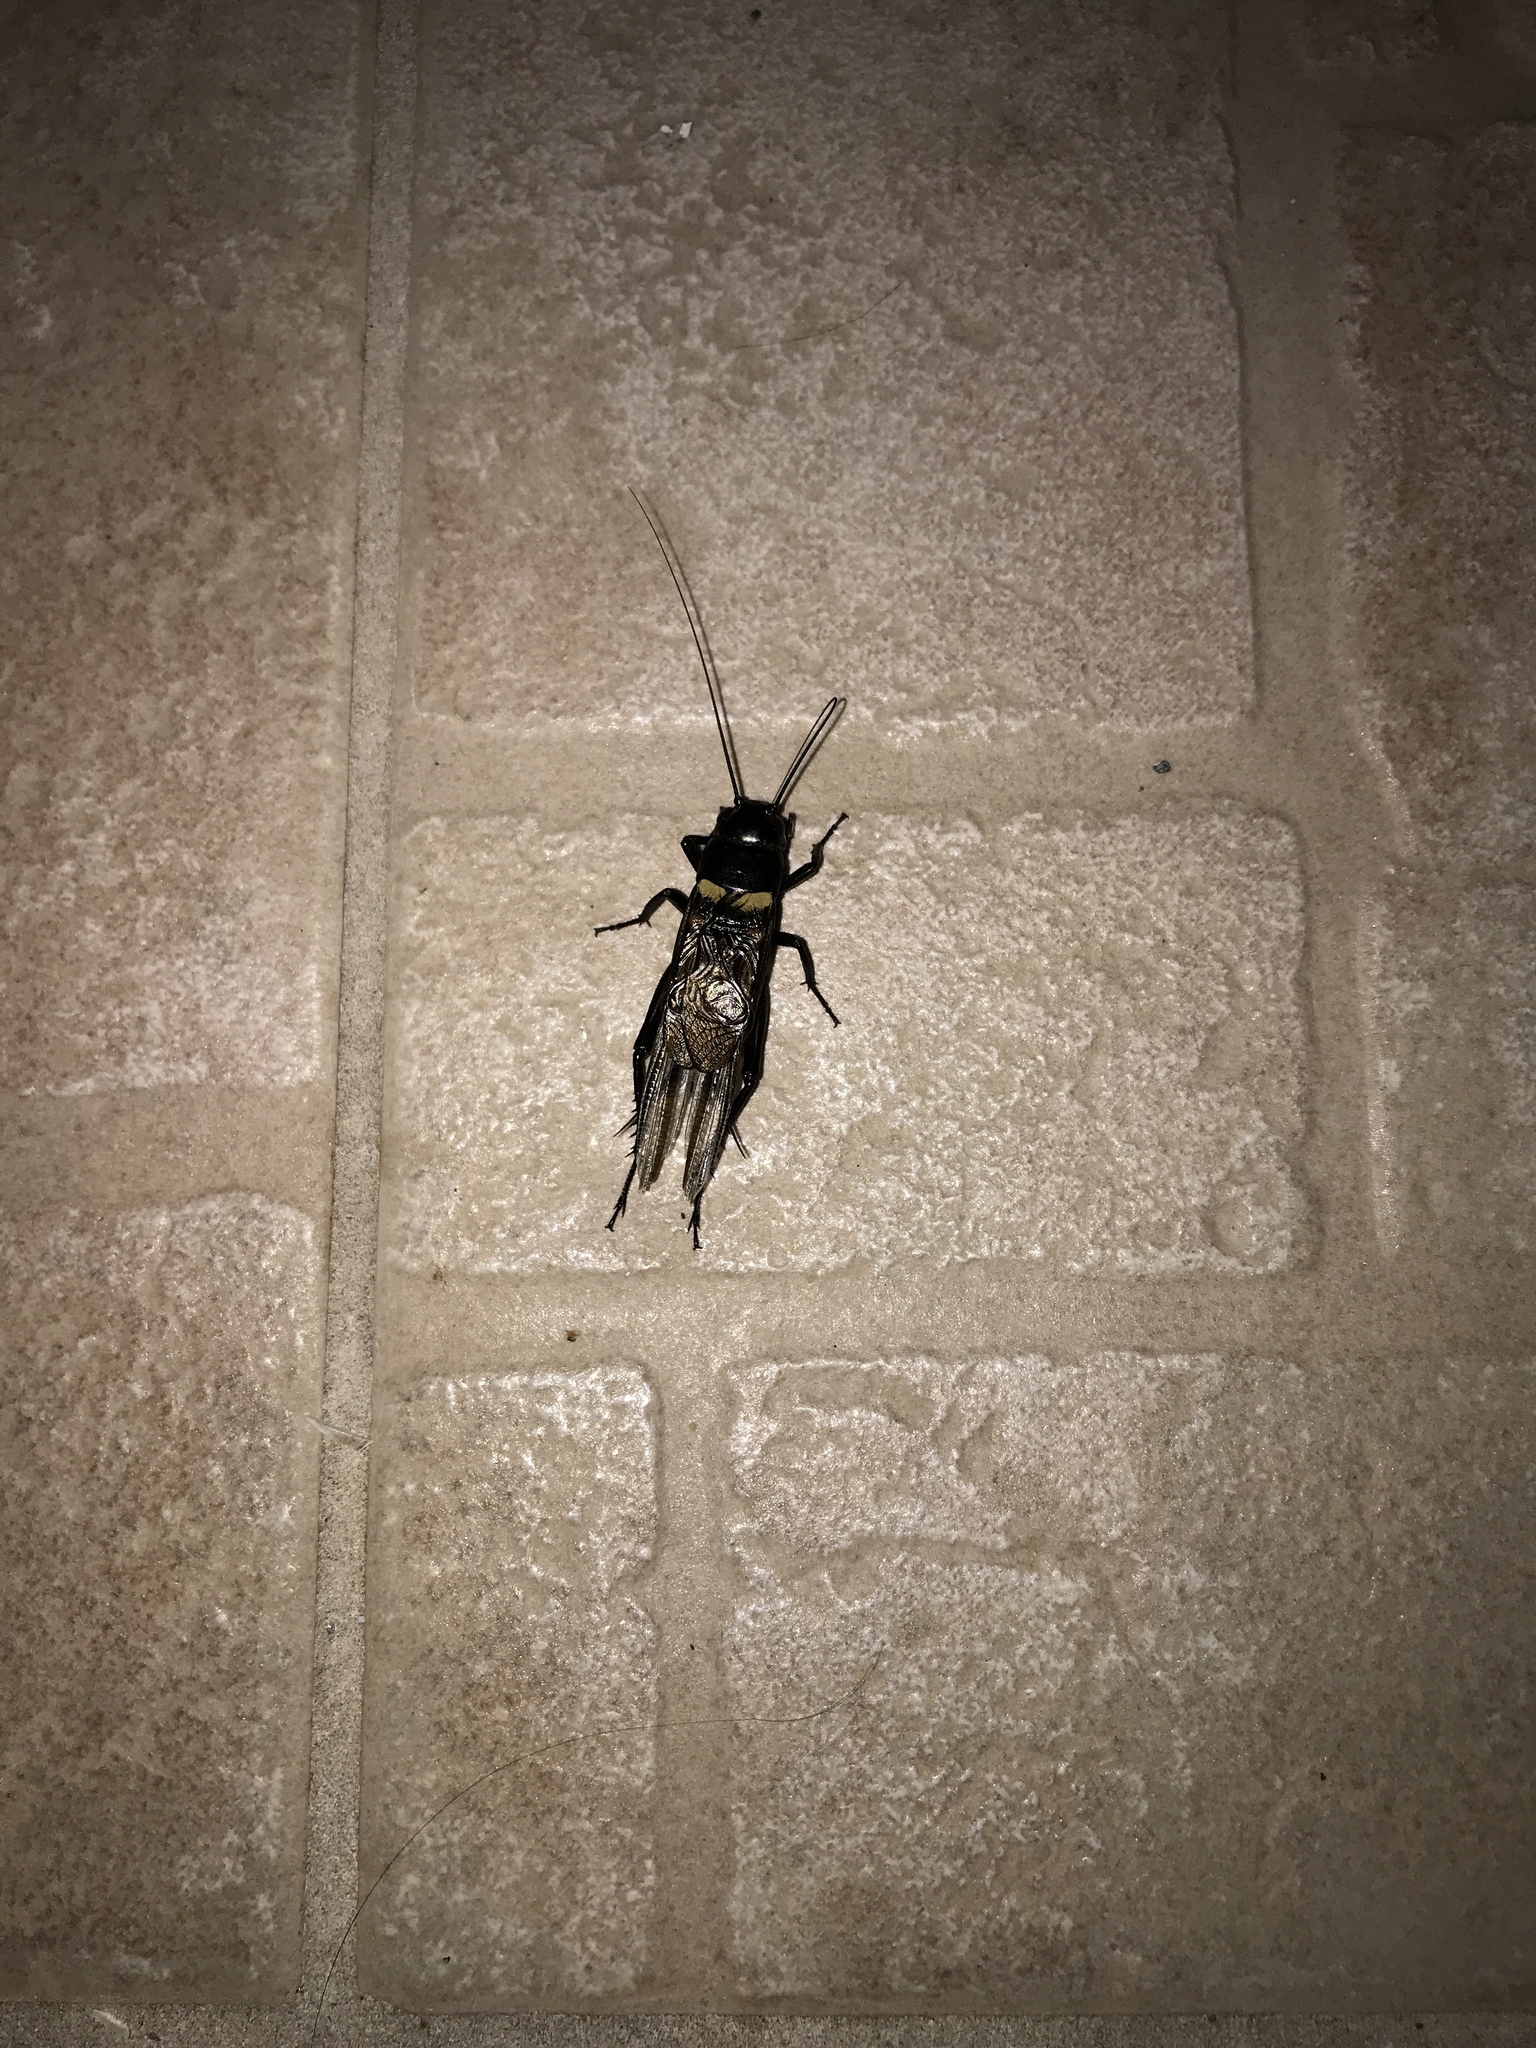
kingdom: Animalia
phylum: Arthropoda
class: Insecta
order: Orthoptera
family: Gryllidae
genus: Gryllus
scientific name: Gryllus bimaculatus
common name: Two-spotted cricket
